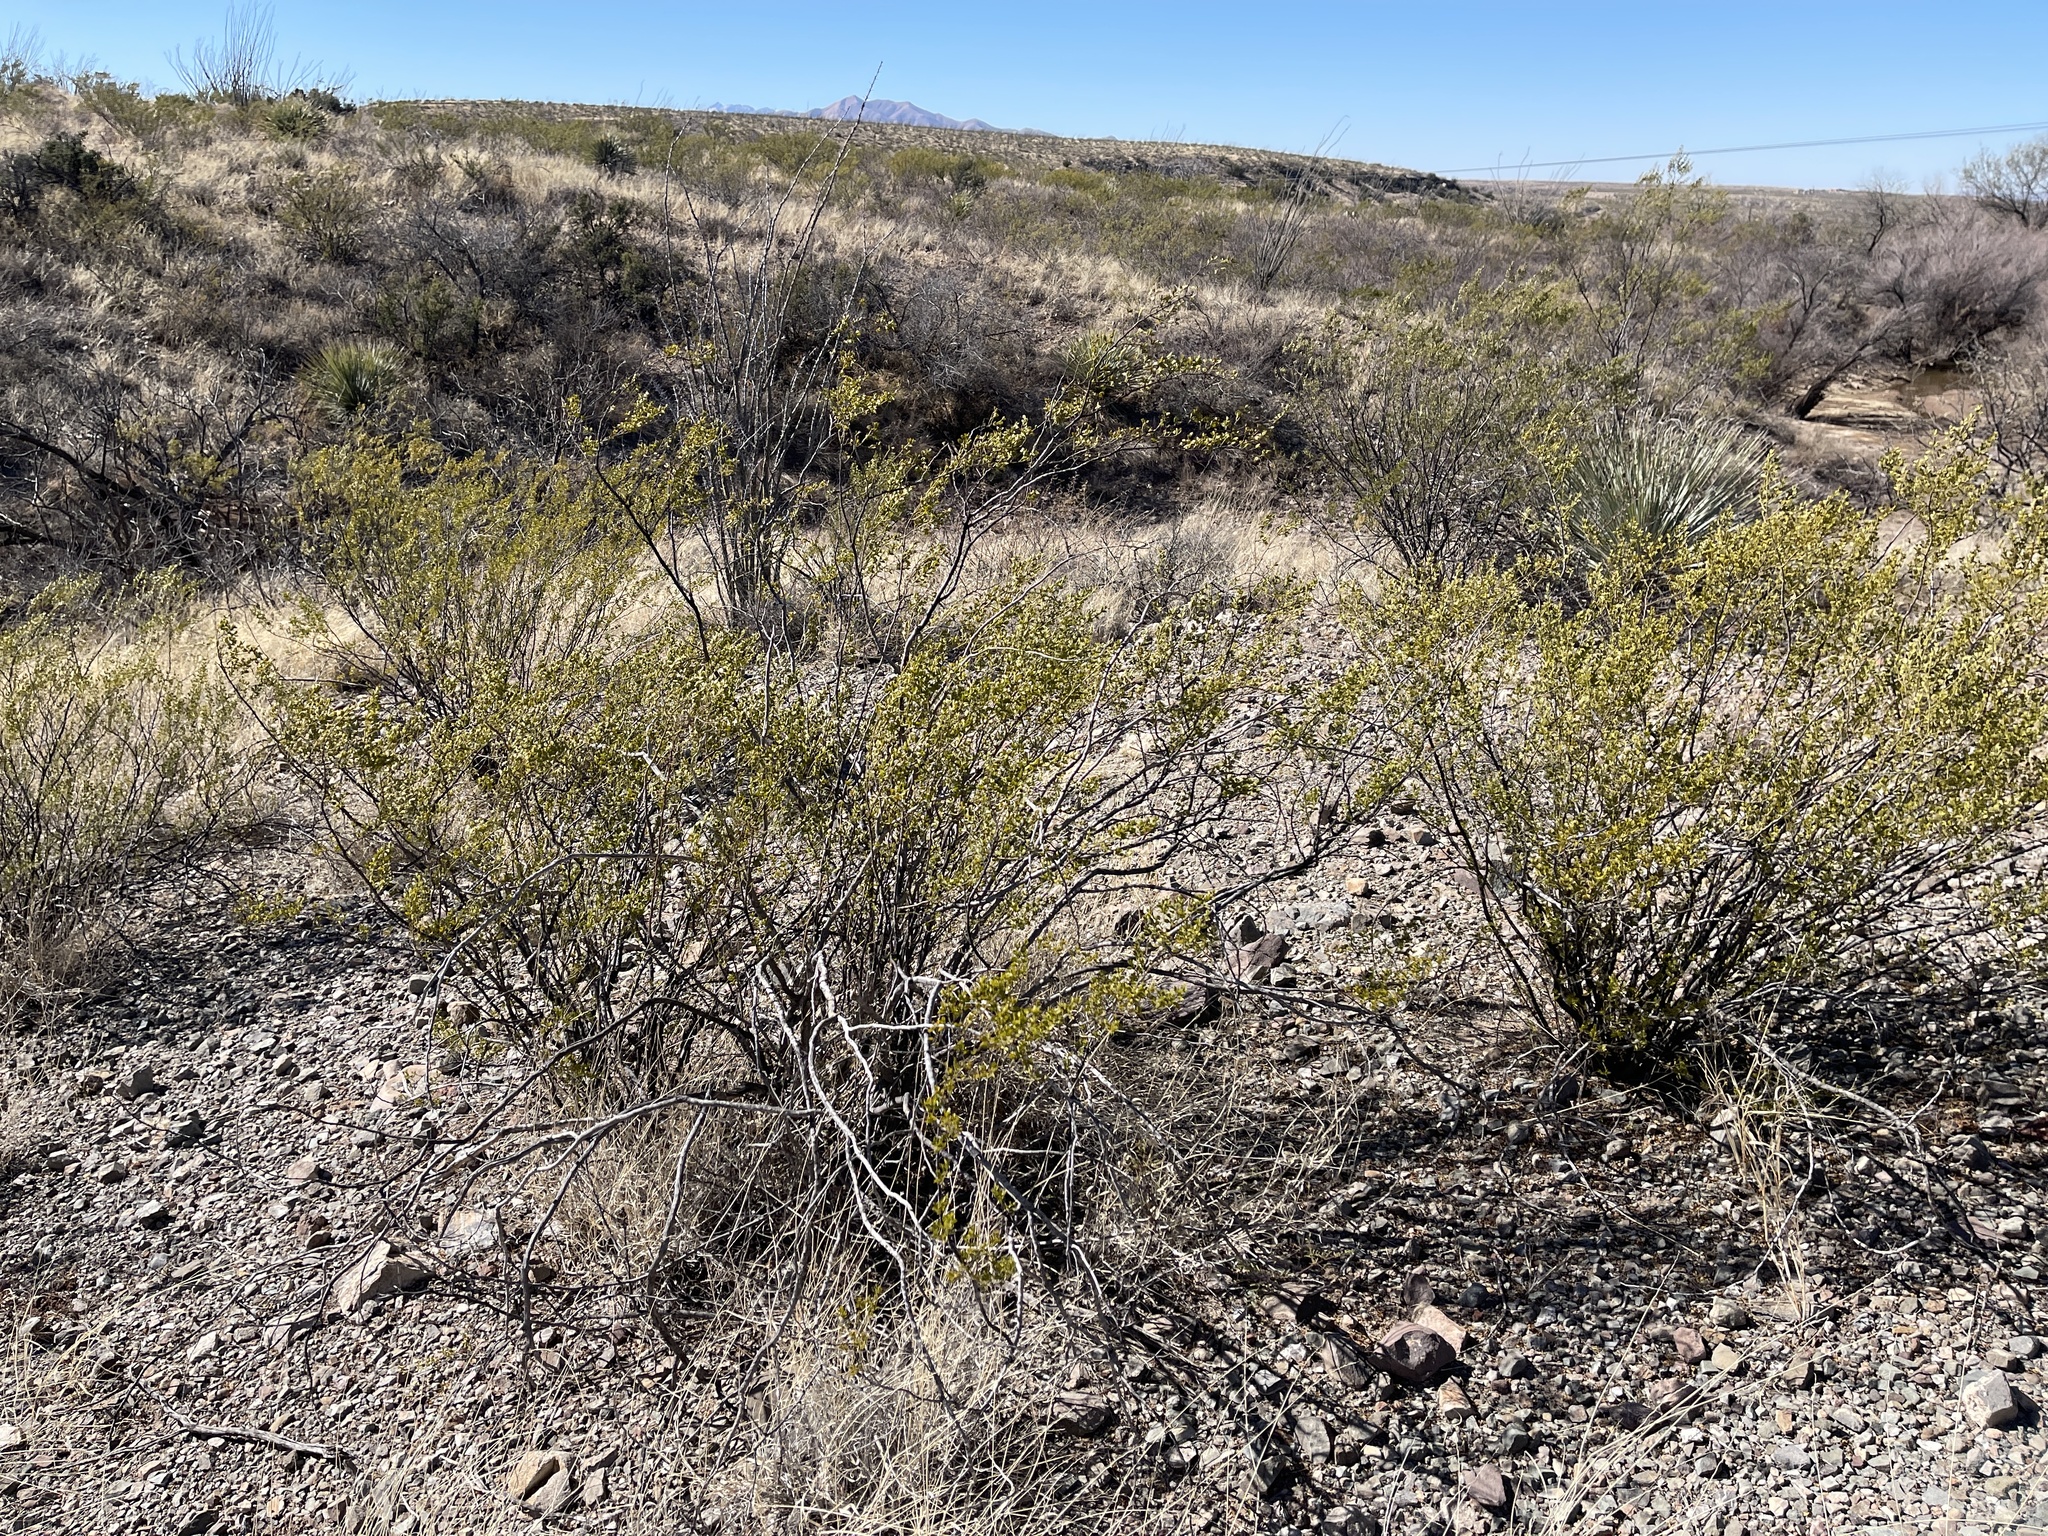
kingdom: Plantae
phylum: Tracheophyta
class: Magnoliopsida
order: Zygophyllales
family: Zygophyllaceae
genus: Larrea
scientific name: Larrea tridentata
